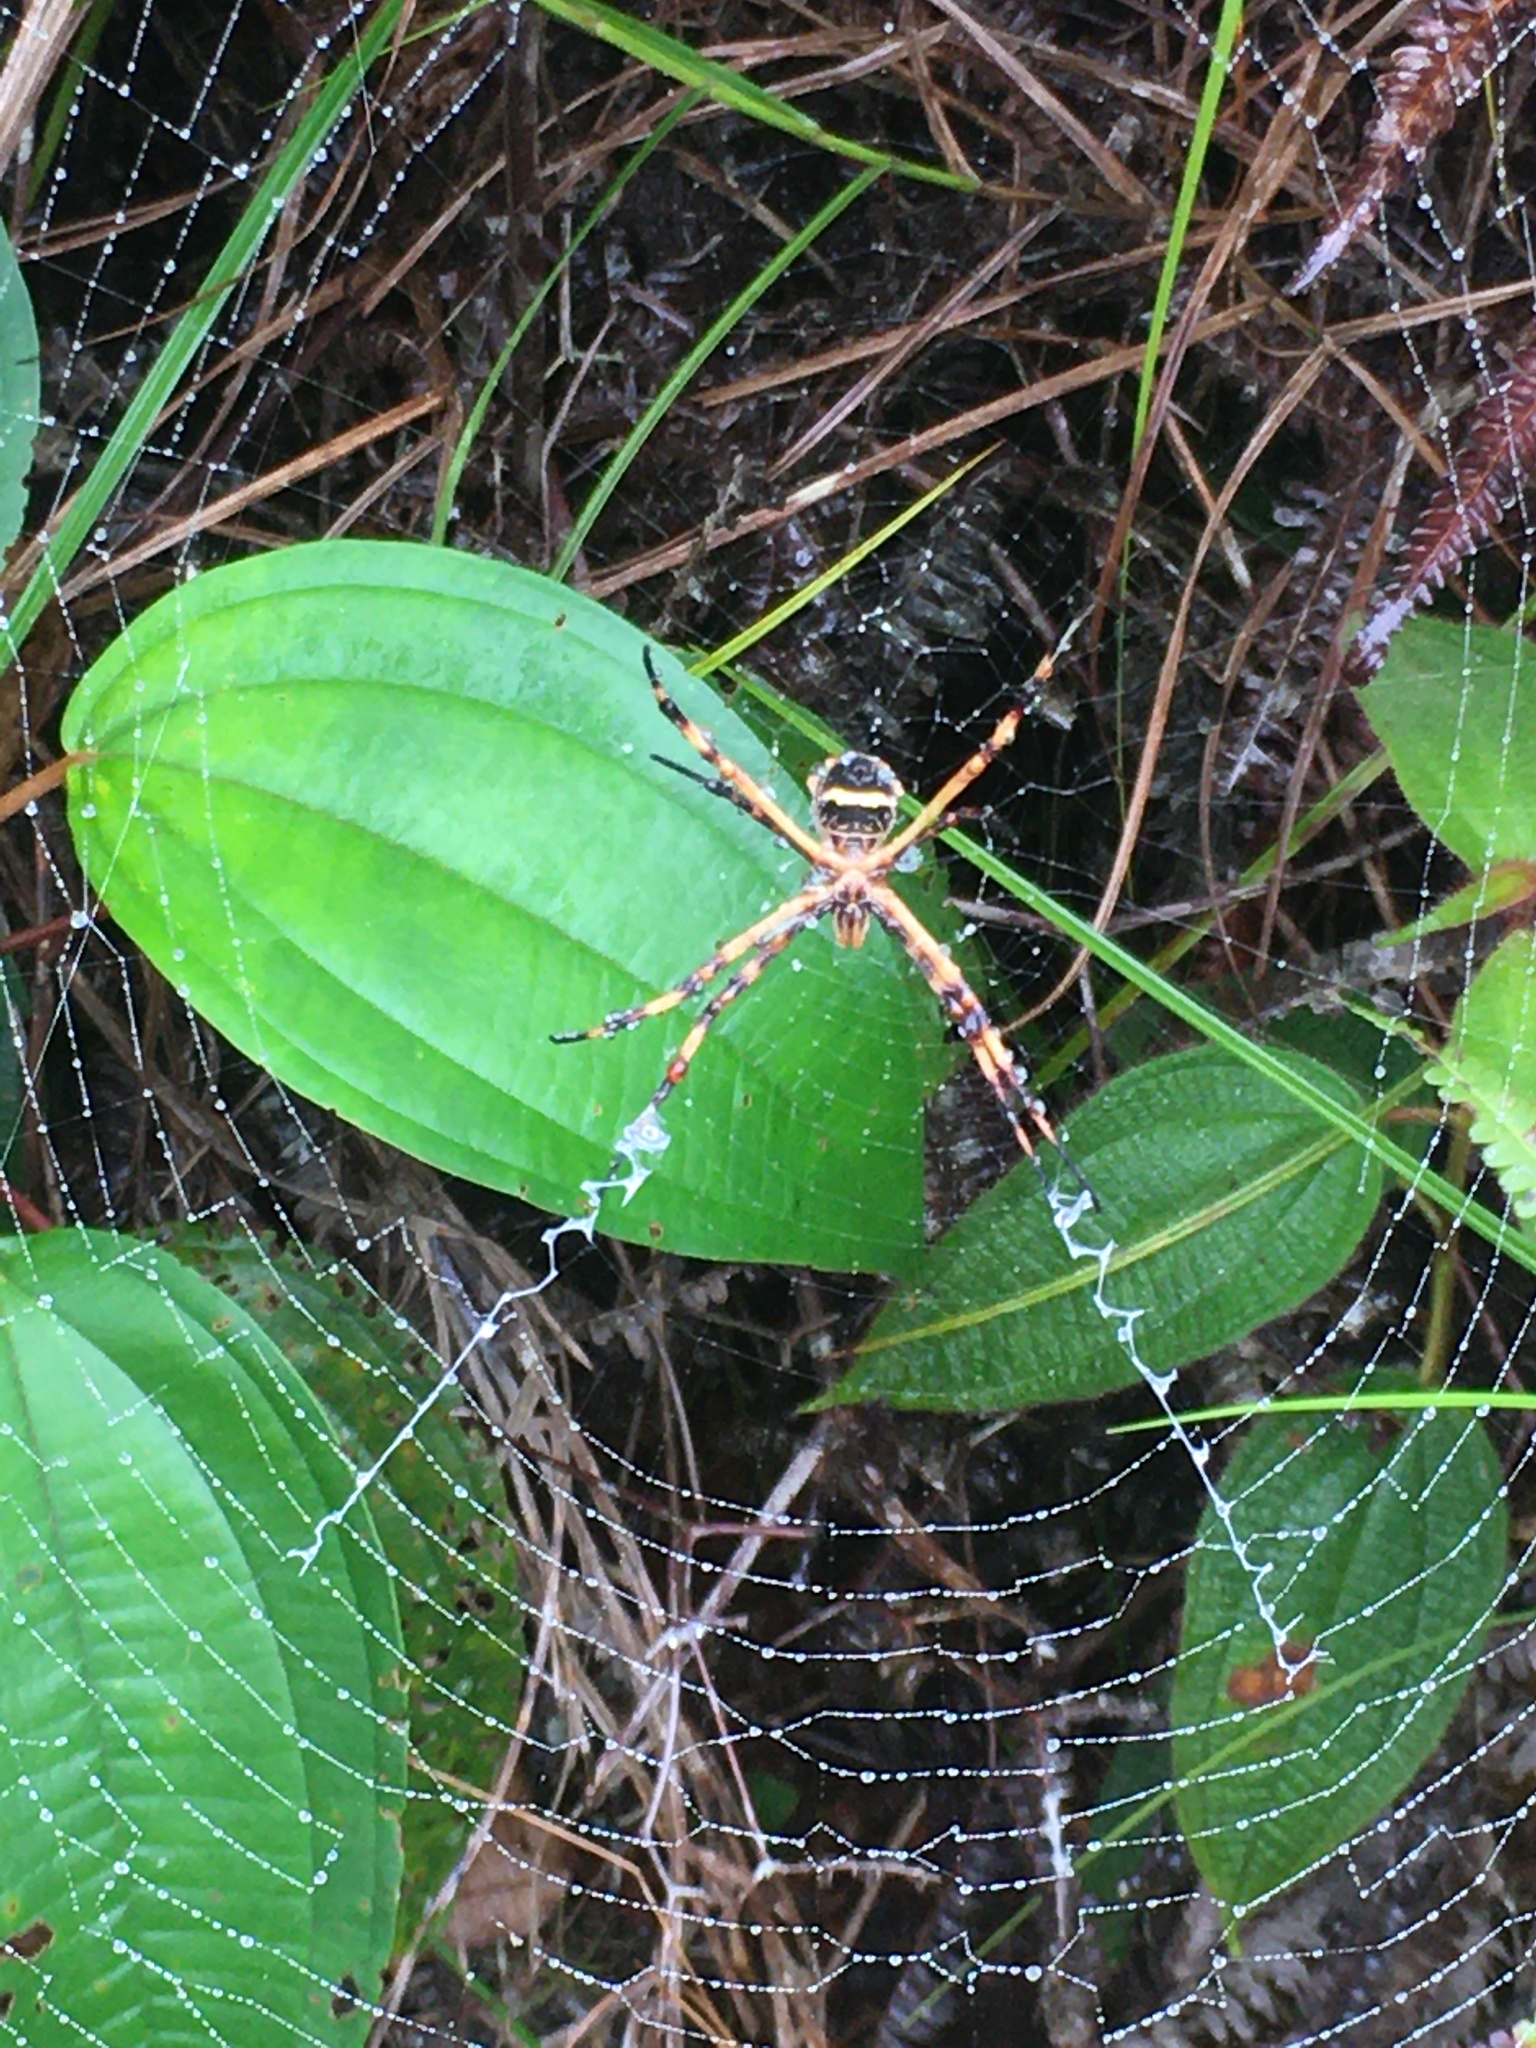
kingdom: Animalia
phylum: Arthropoda
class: Arachnida
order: Araneae
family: Araneidae
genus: Argiope
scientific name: Argiope argentata
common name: Orb weavers
